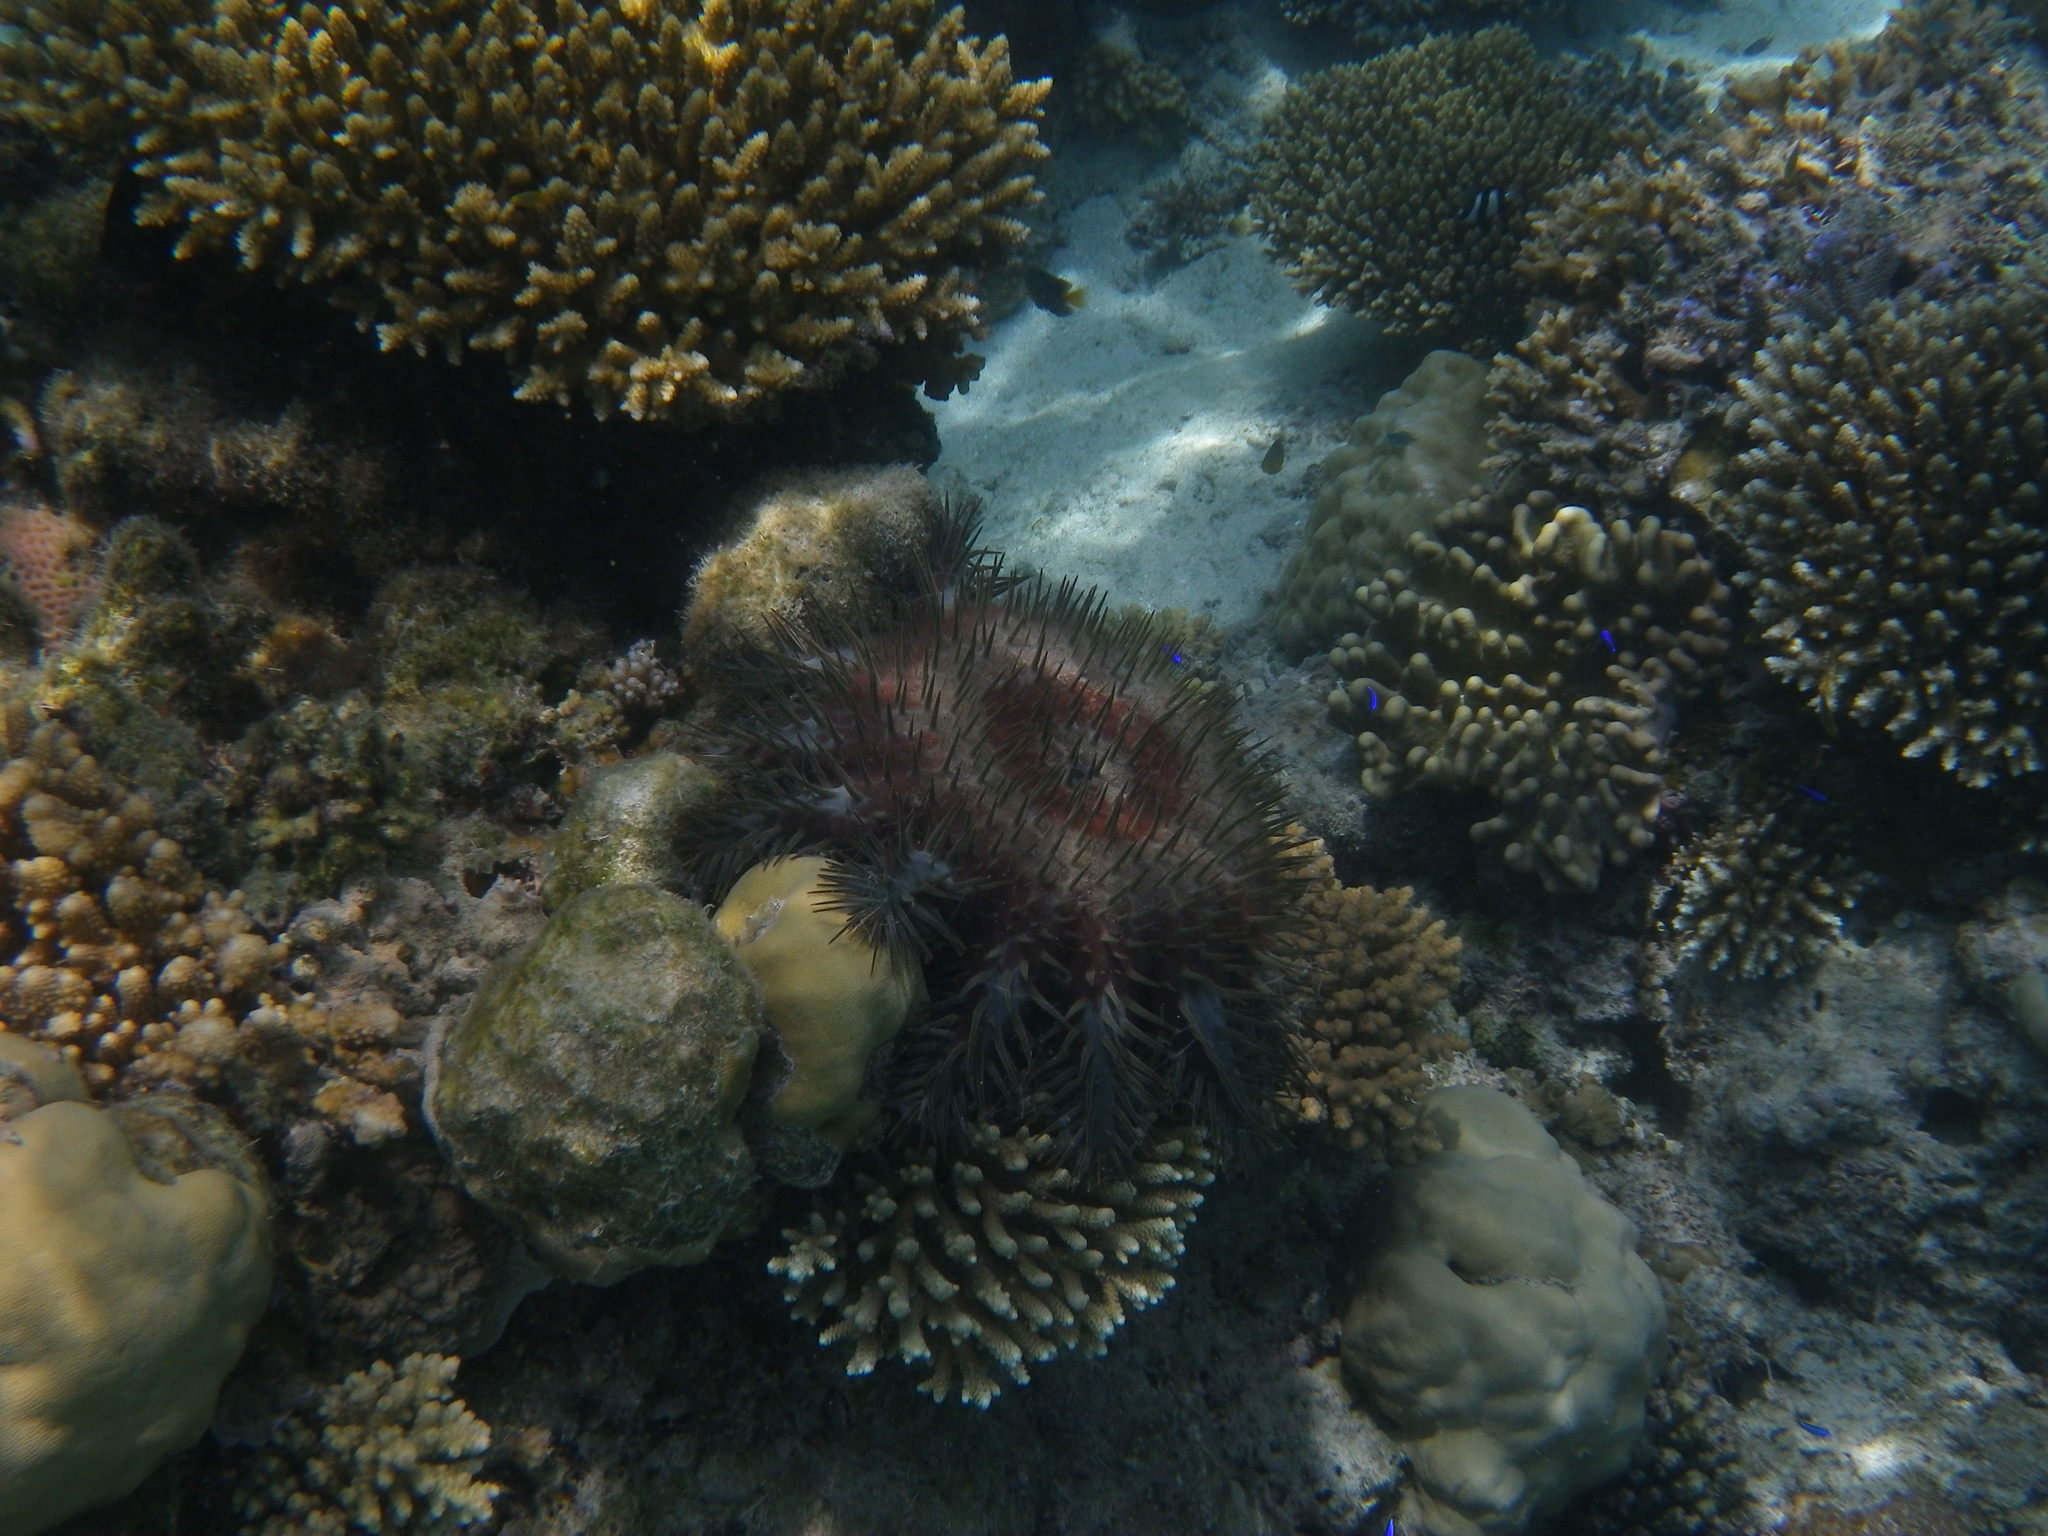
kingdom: Animalia
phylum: Echinodermata
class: Asteroidea
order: Valvatida
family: Acanthasteridae
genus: Acanthaster
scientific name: Acanthaster planci
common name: Crown-of-thorns
